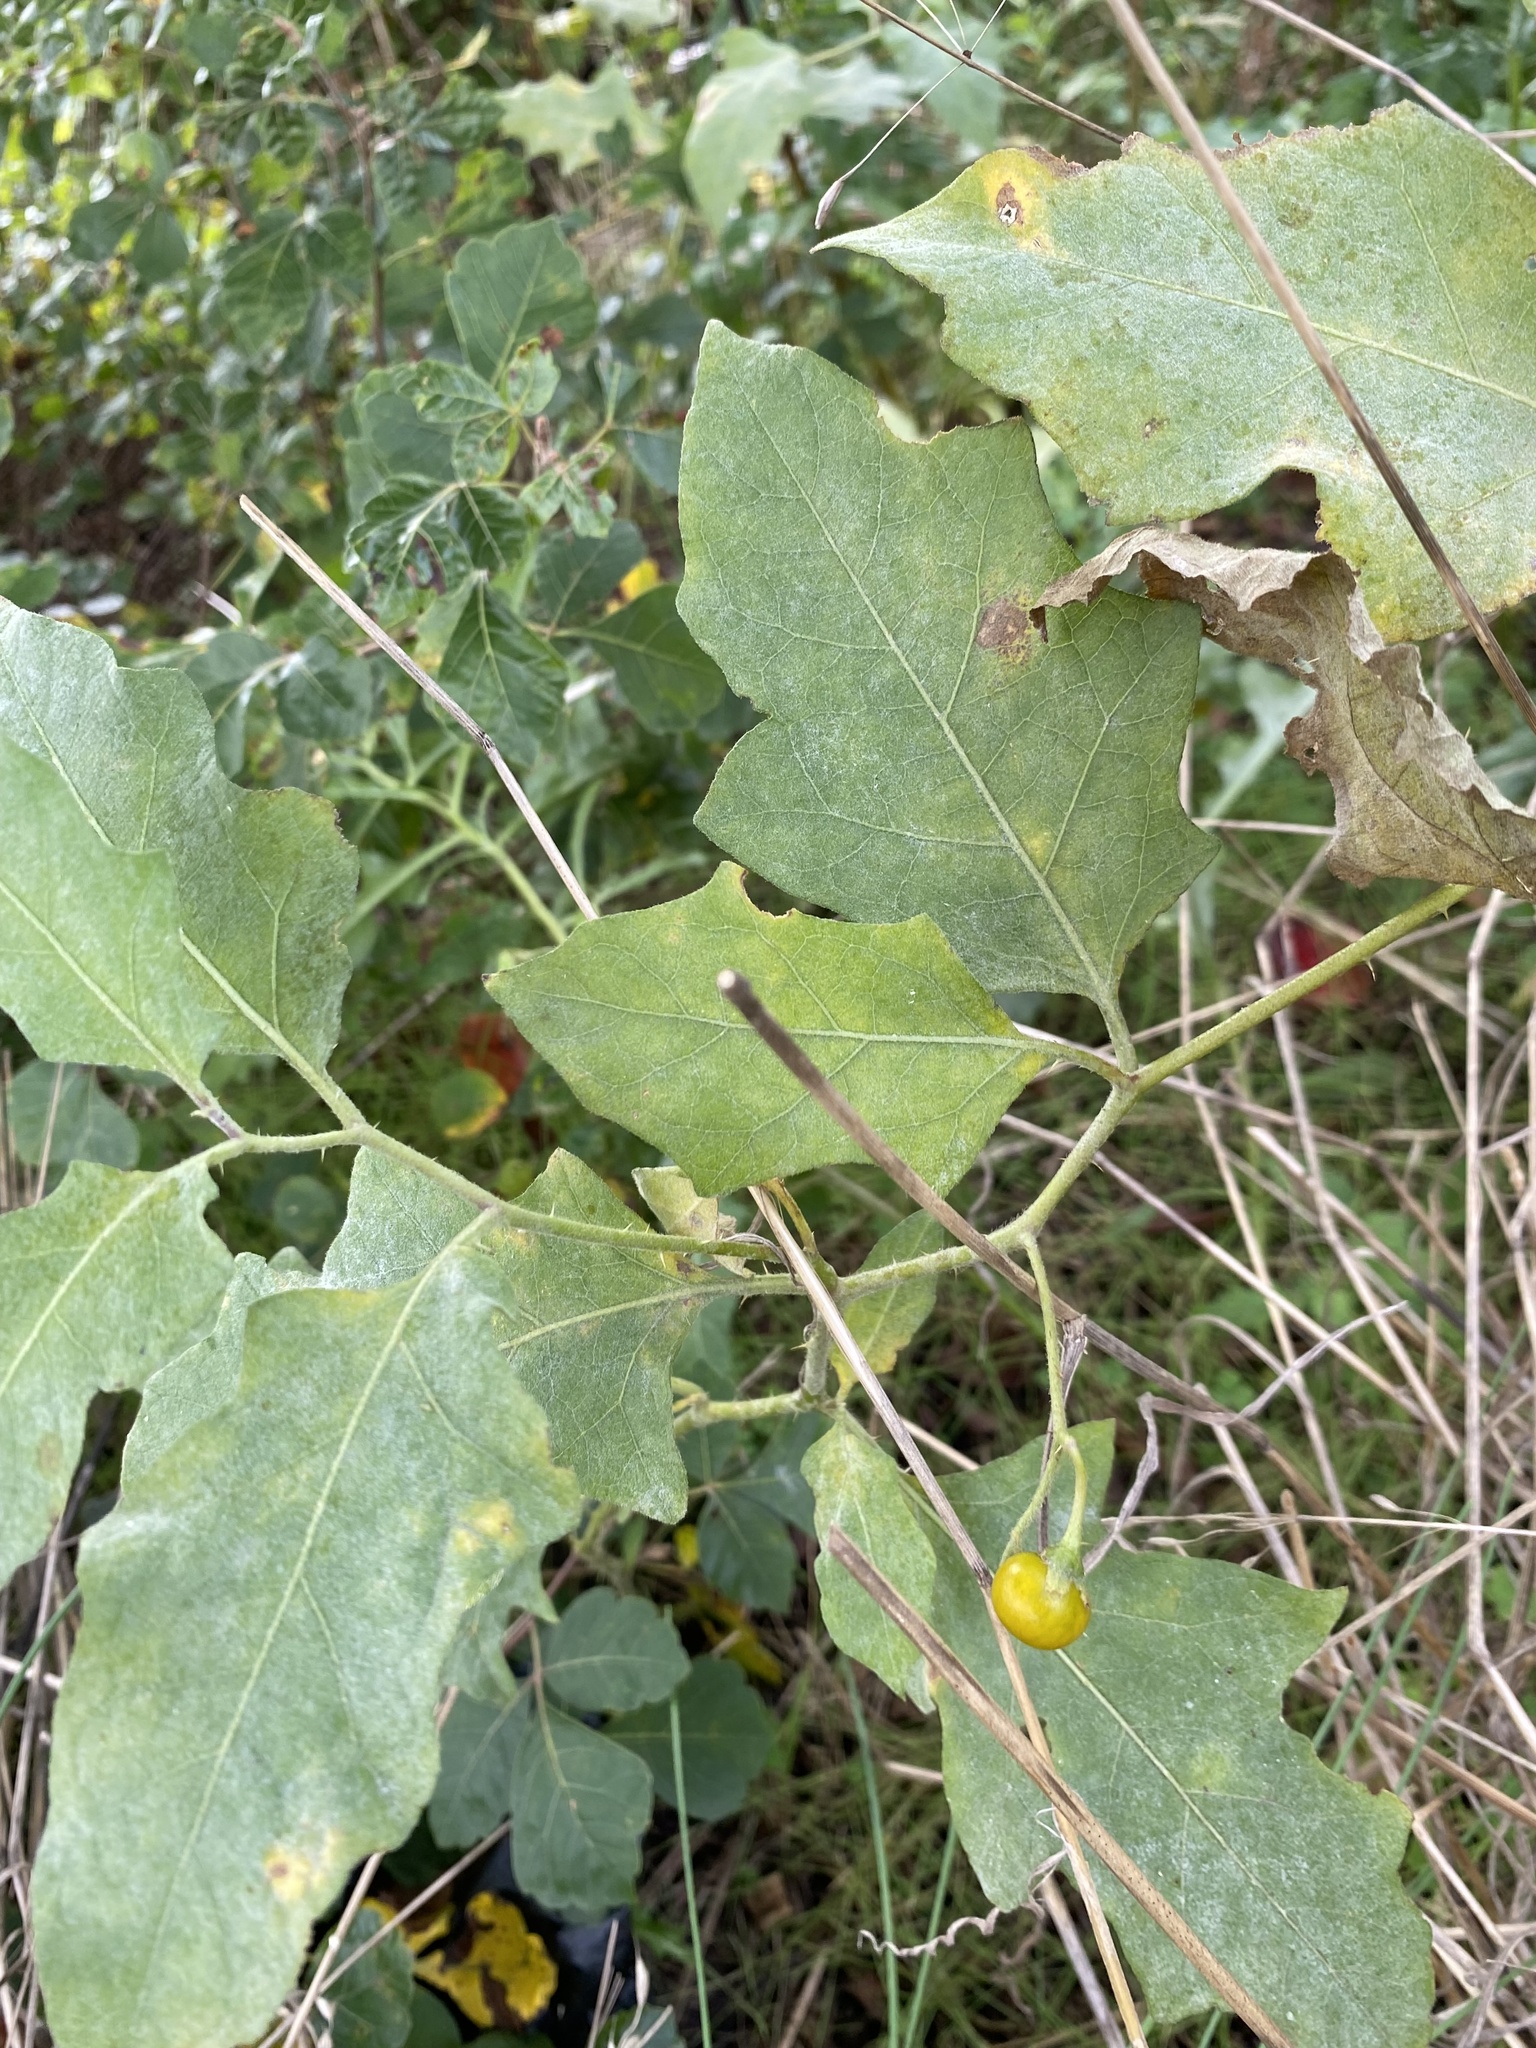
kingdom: Plantae
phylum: Tracheophyta
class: Magnoliopsida
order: Solanales
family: Solanaceae
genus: Solanum
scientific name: Solanum carolinense
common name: Horse-nettle
